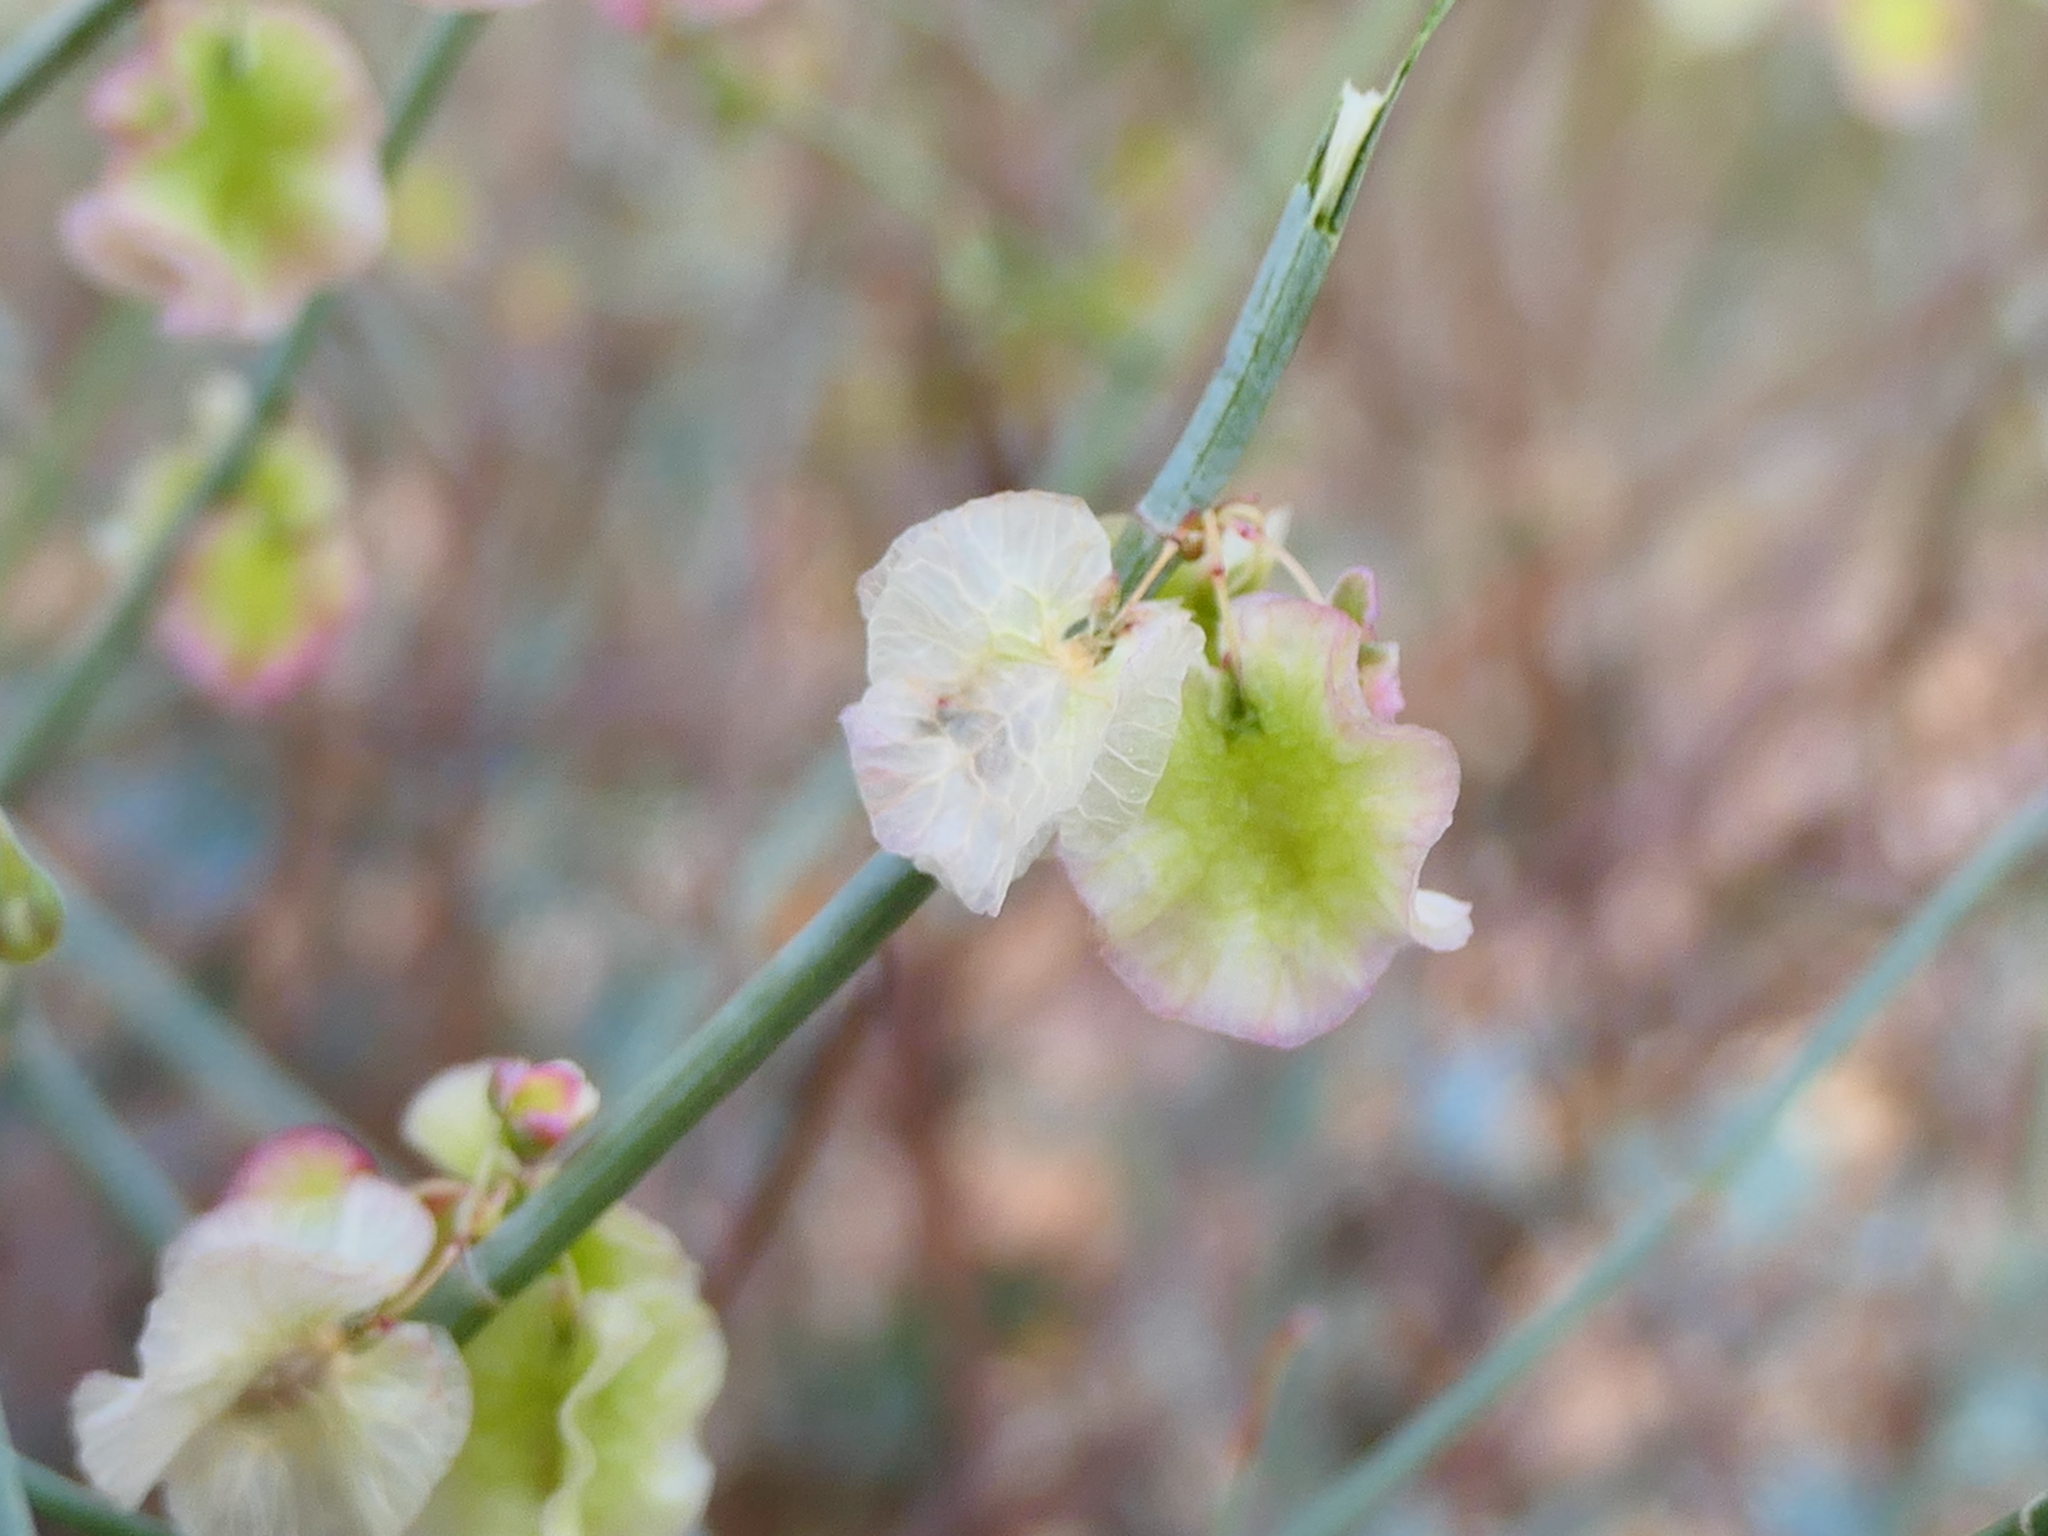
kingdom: Plantae
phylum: Tracheophyta
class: Magnoliopsida
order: Caryophyllales
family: Polygonaceae
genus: Rumex
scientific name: Rumex induratus
